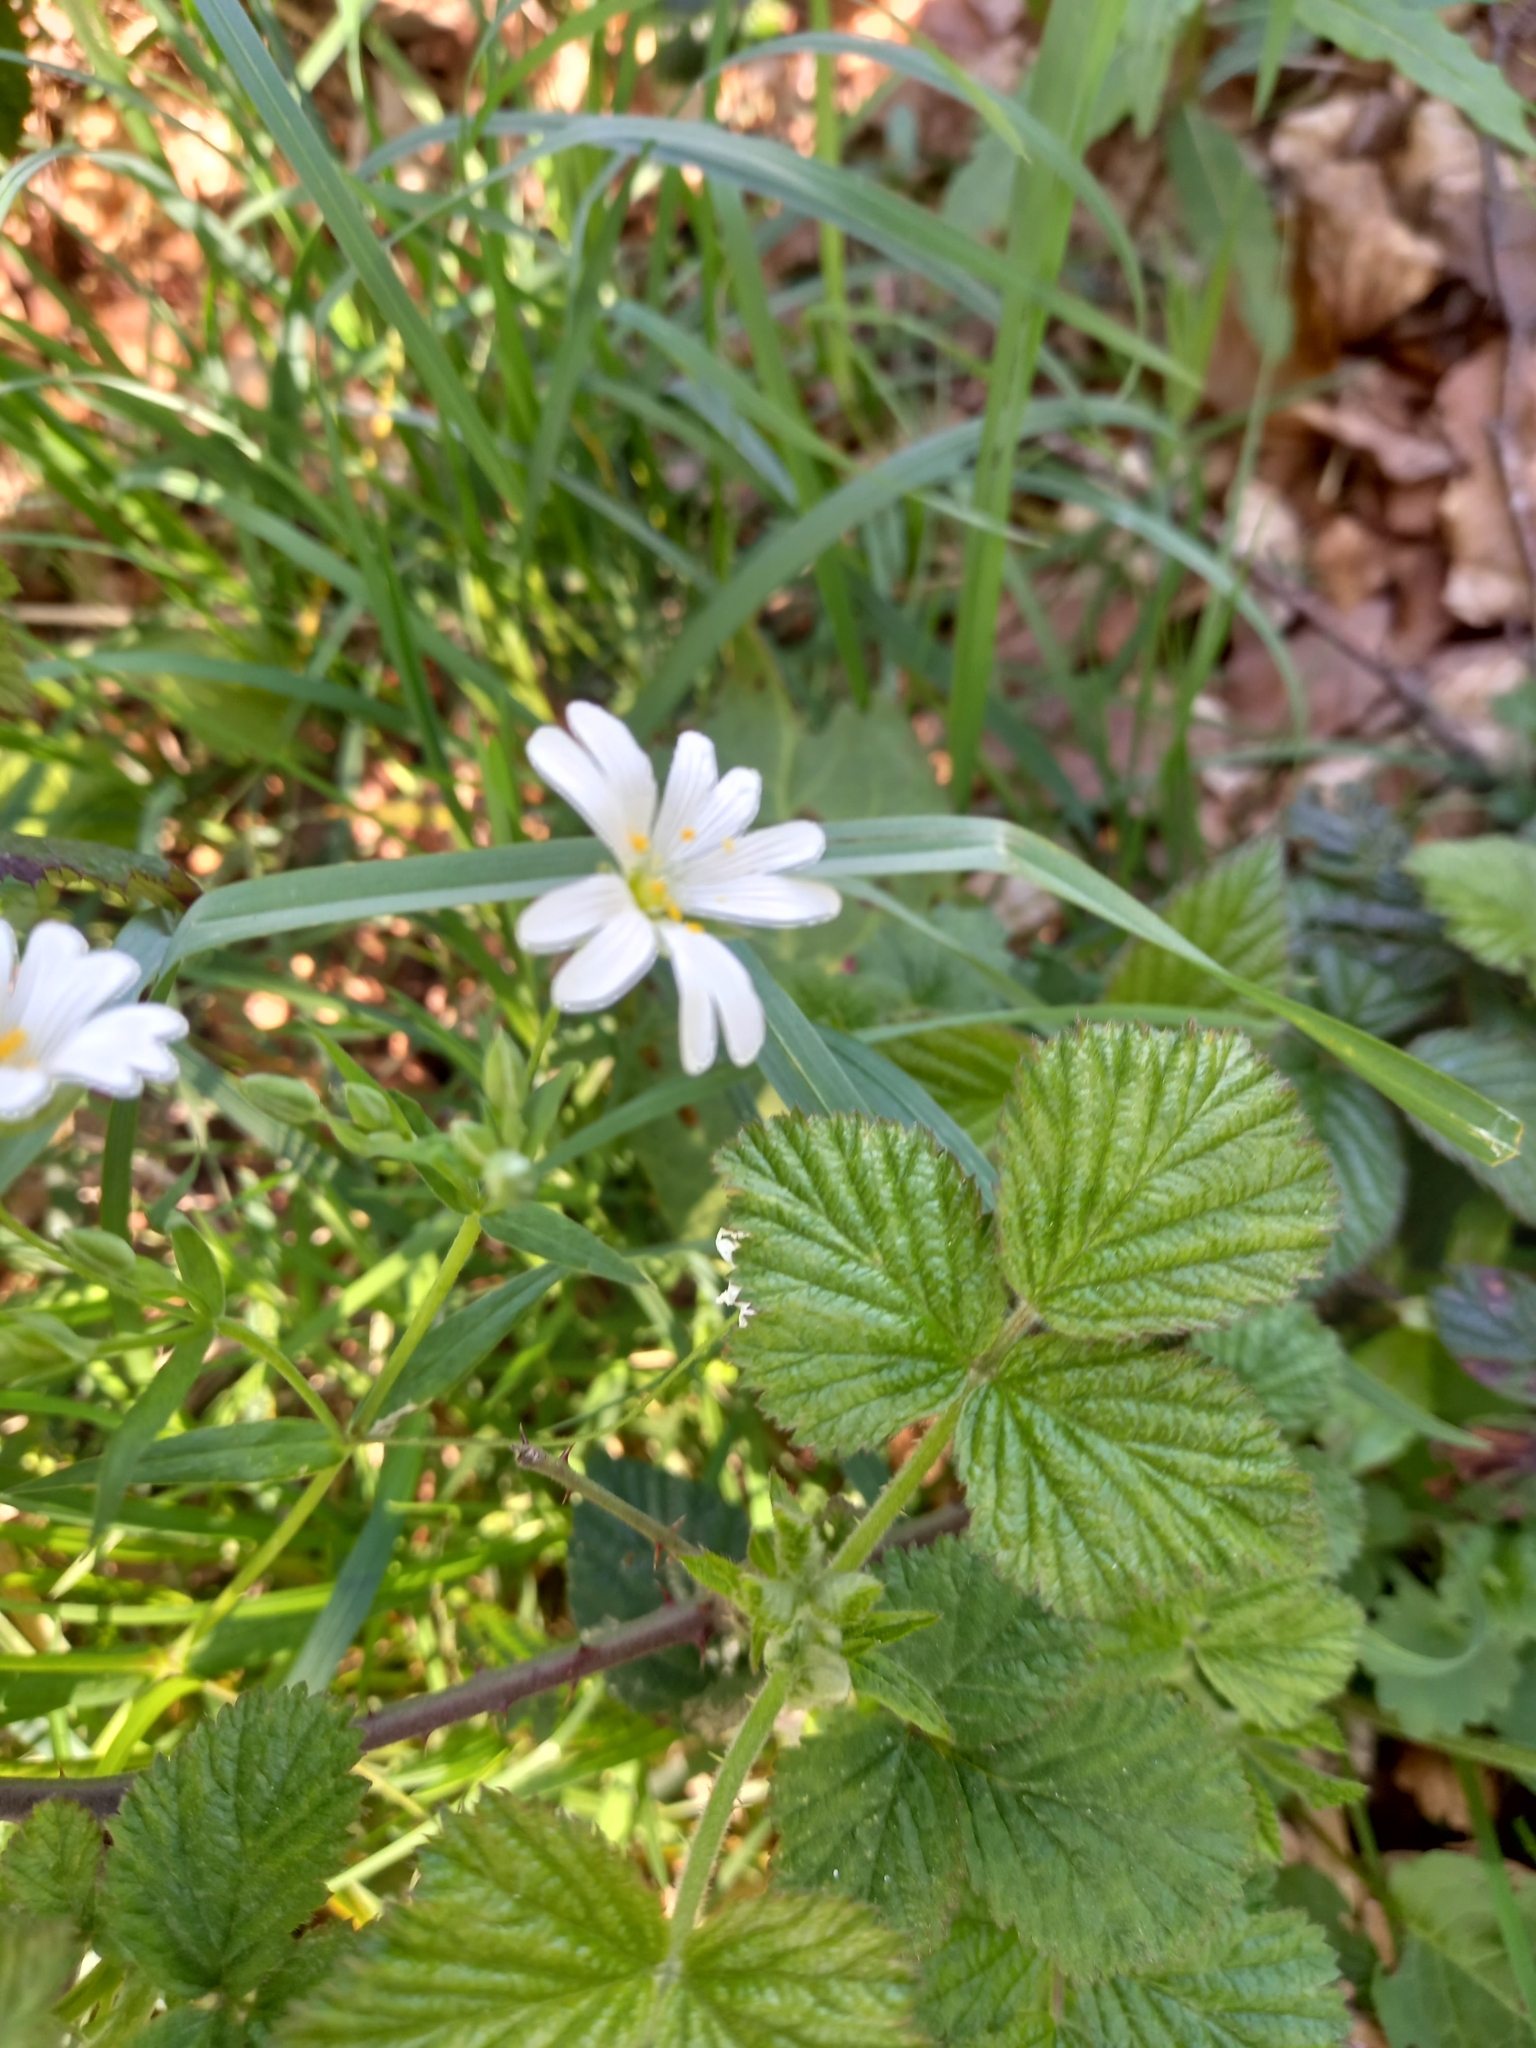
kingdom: Plantae
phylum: Tracheophyta
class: Magnoliopsida
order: Caryophyllales
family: Caryophyllaceae
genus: Rabelera
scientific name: Rabelera holostea
